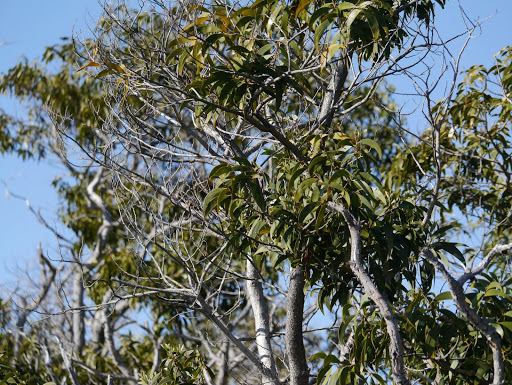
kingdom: Plantae
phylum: Tracheophyta
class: Magnoliopsida
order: Fabales
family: Fabaceae
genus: Acacia
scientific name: Acacia koa
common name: Gray koa
